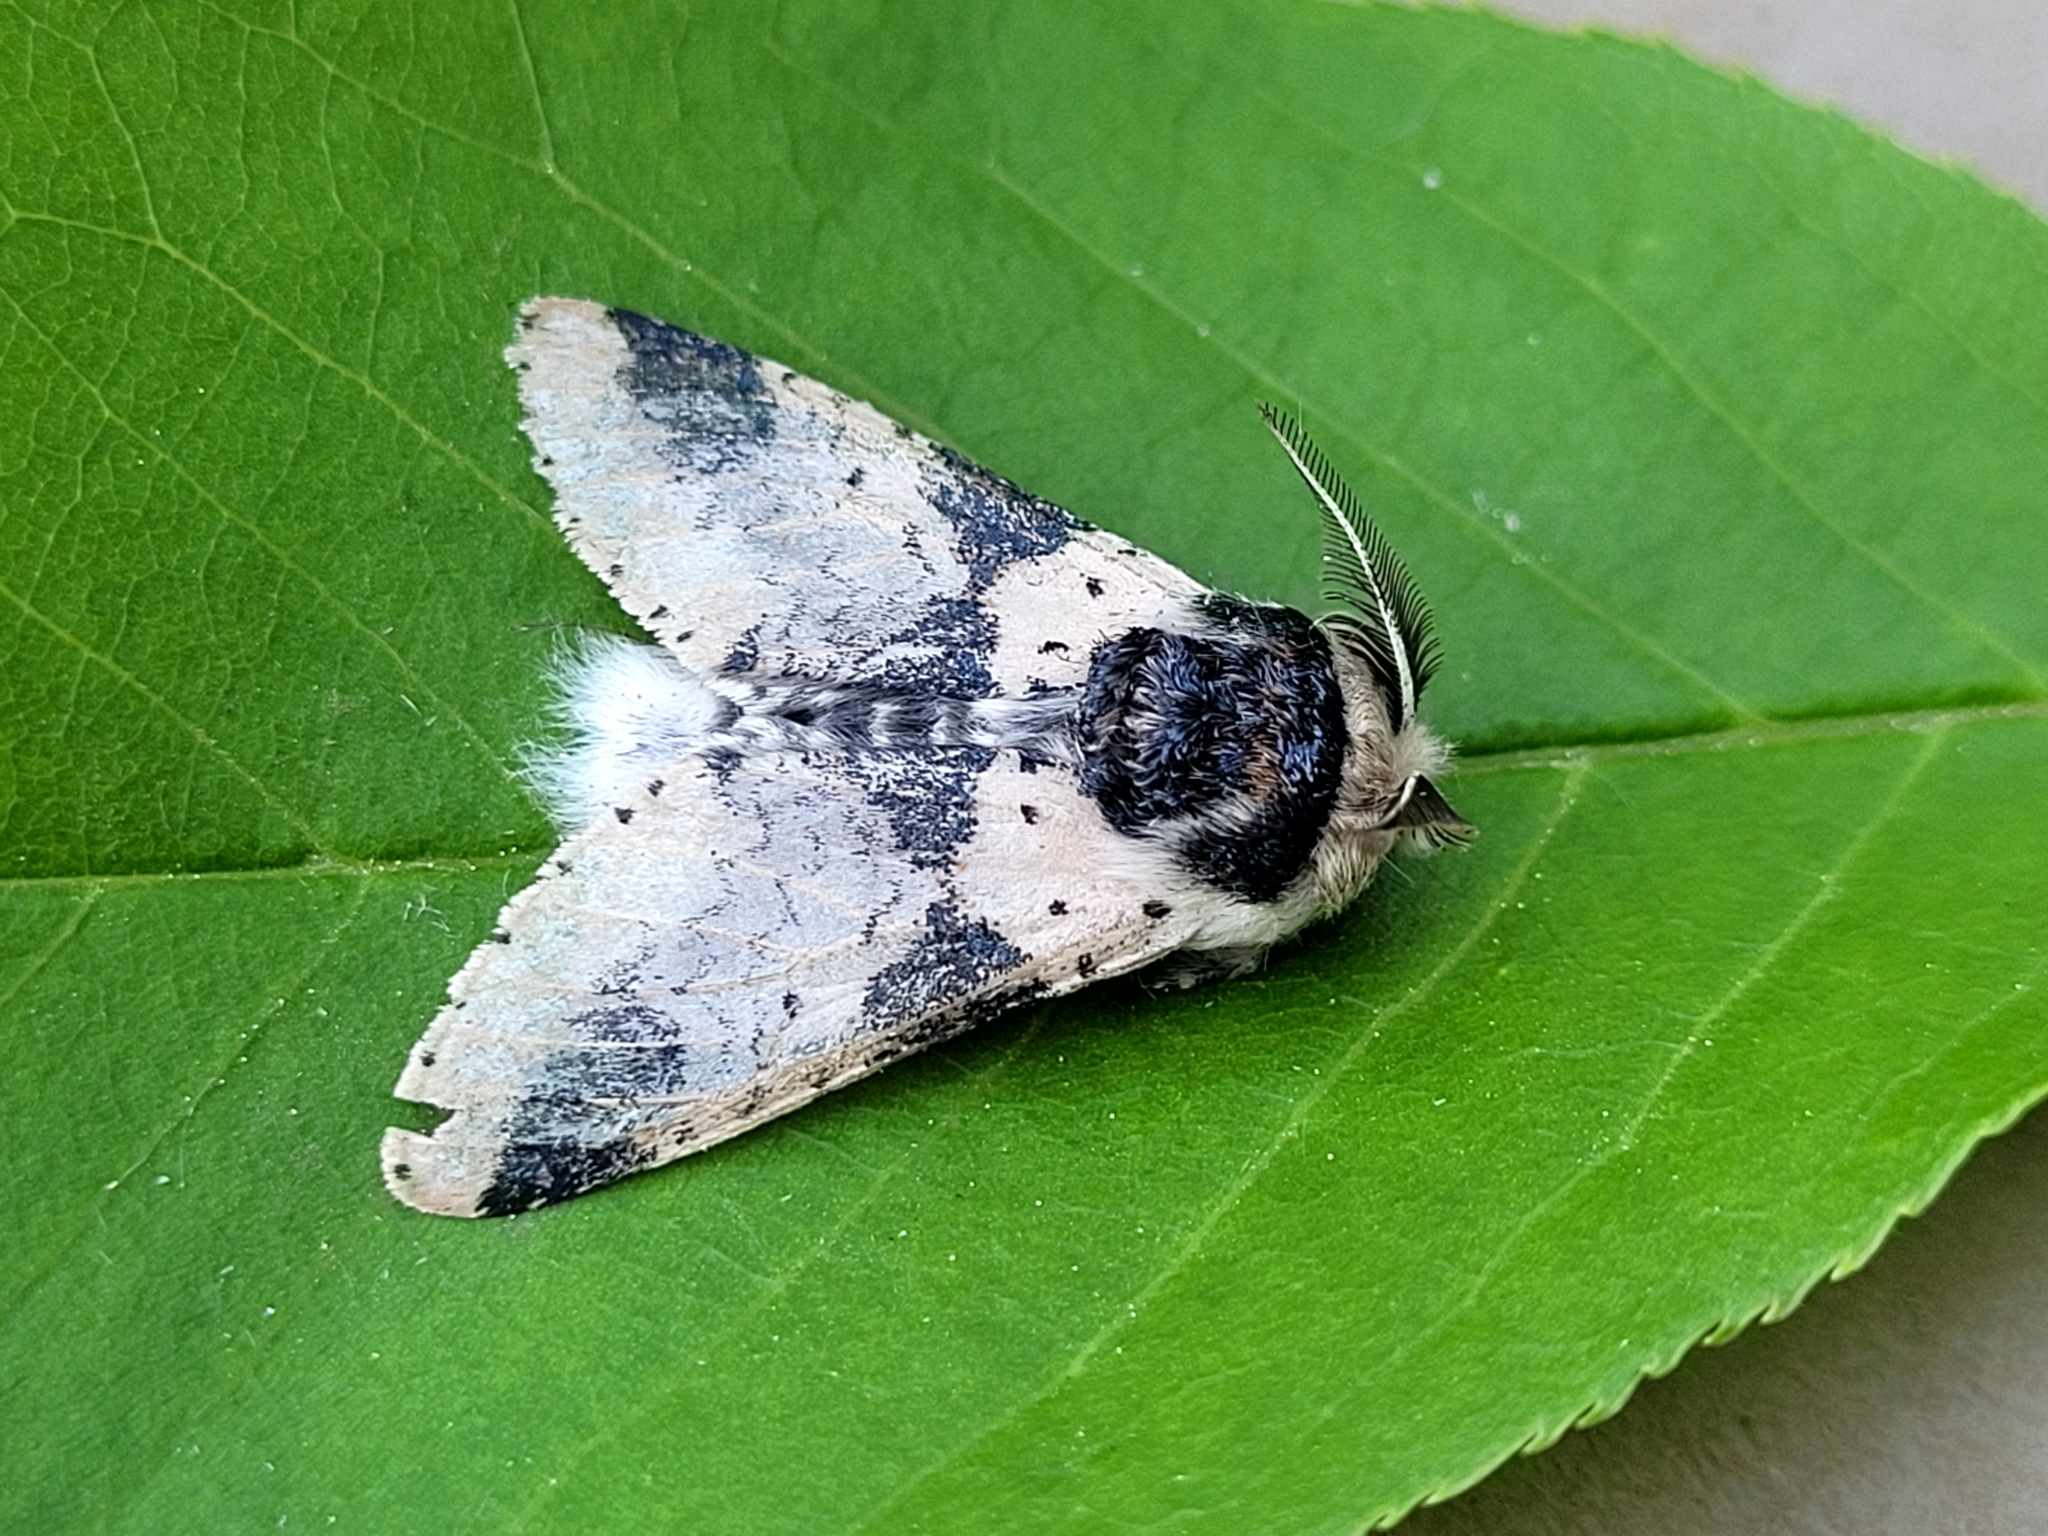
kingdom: Animalia
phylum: Arthropoda
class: Insecta
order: Lepidoptera
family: Notodontidae
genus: Furcula
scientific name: Furcula modesta
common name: Modest furcula moth
